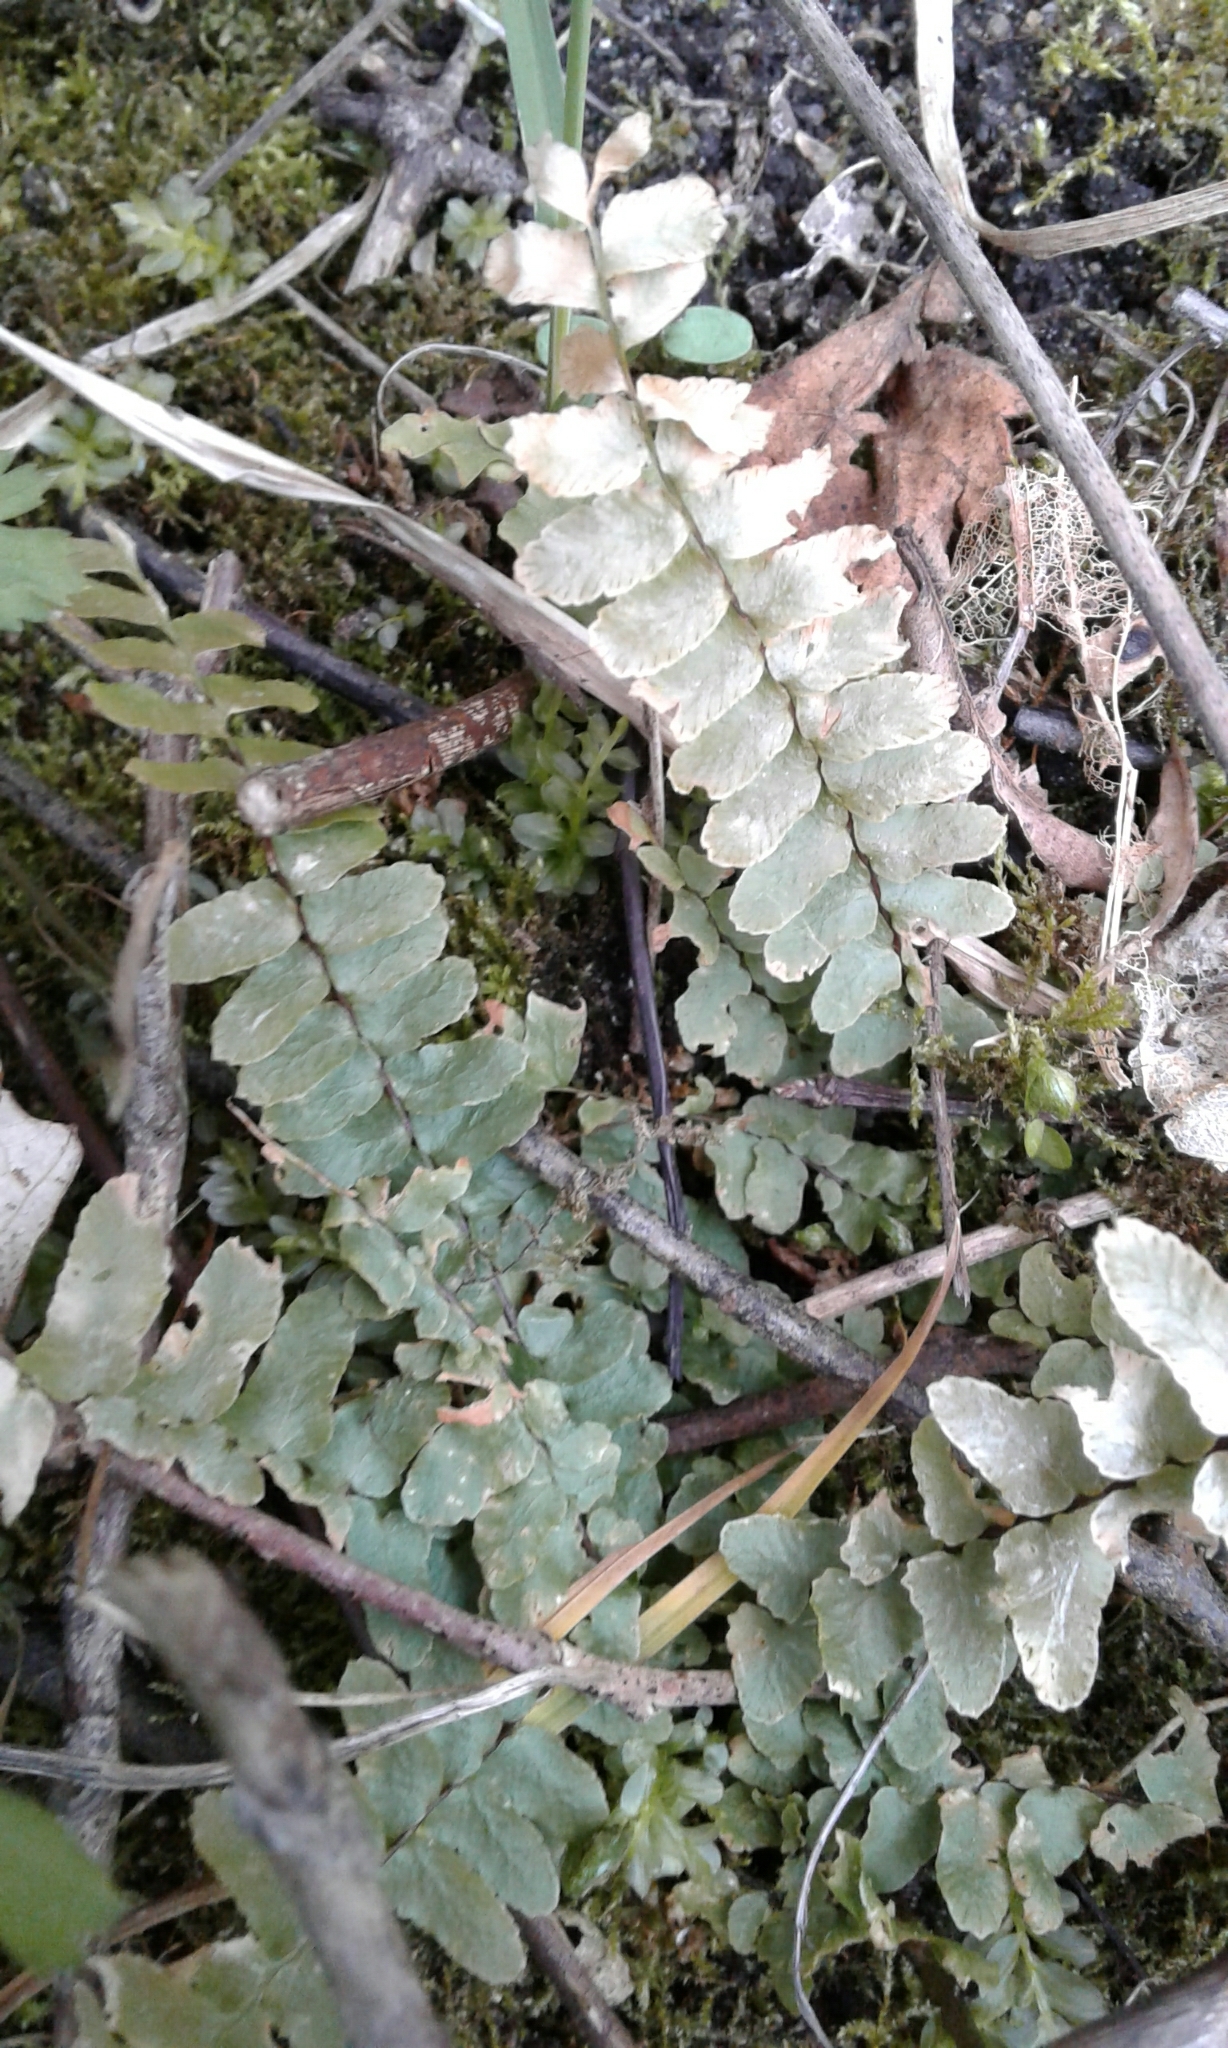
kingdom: Plantae
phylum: Tracheophyta
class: Polypodiopsida
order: Polypodiales
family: Aspleniaceae
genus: Asplenium
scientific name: Asplenium platyneuron
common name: Ebony spleenwort
